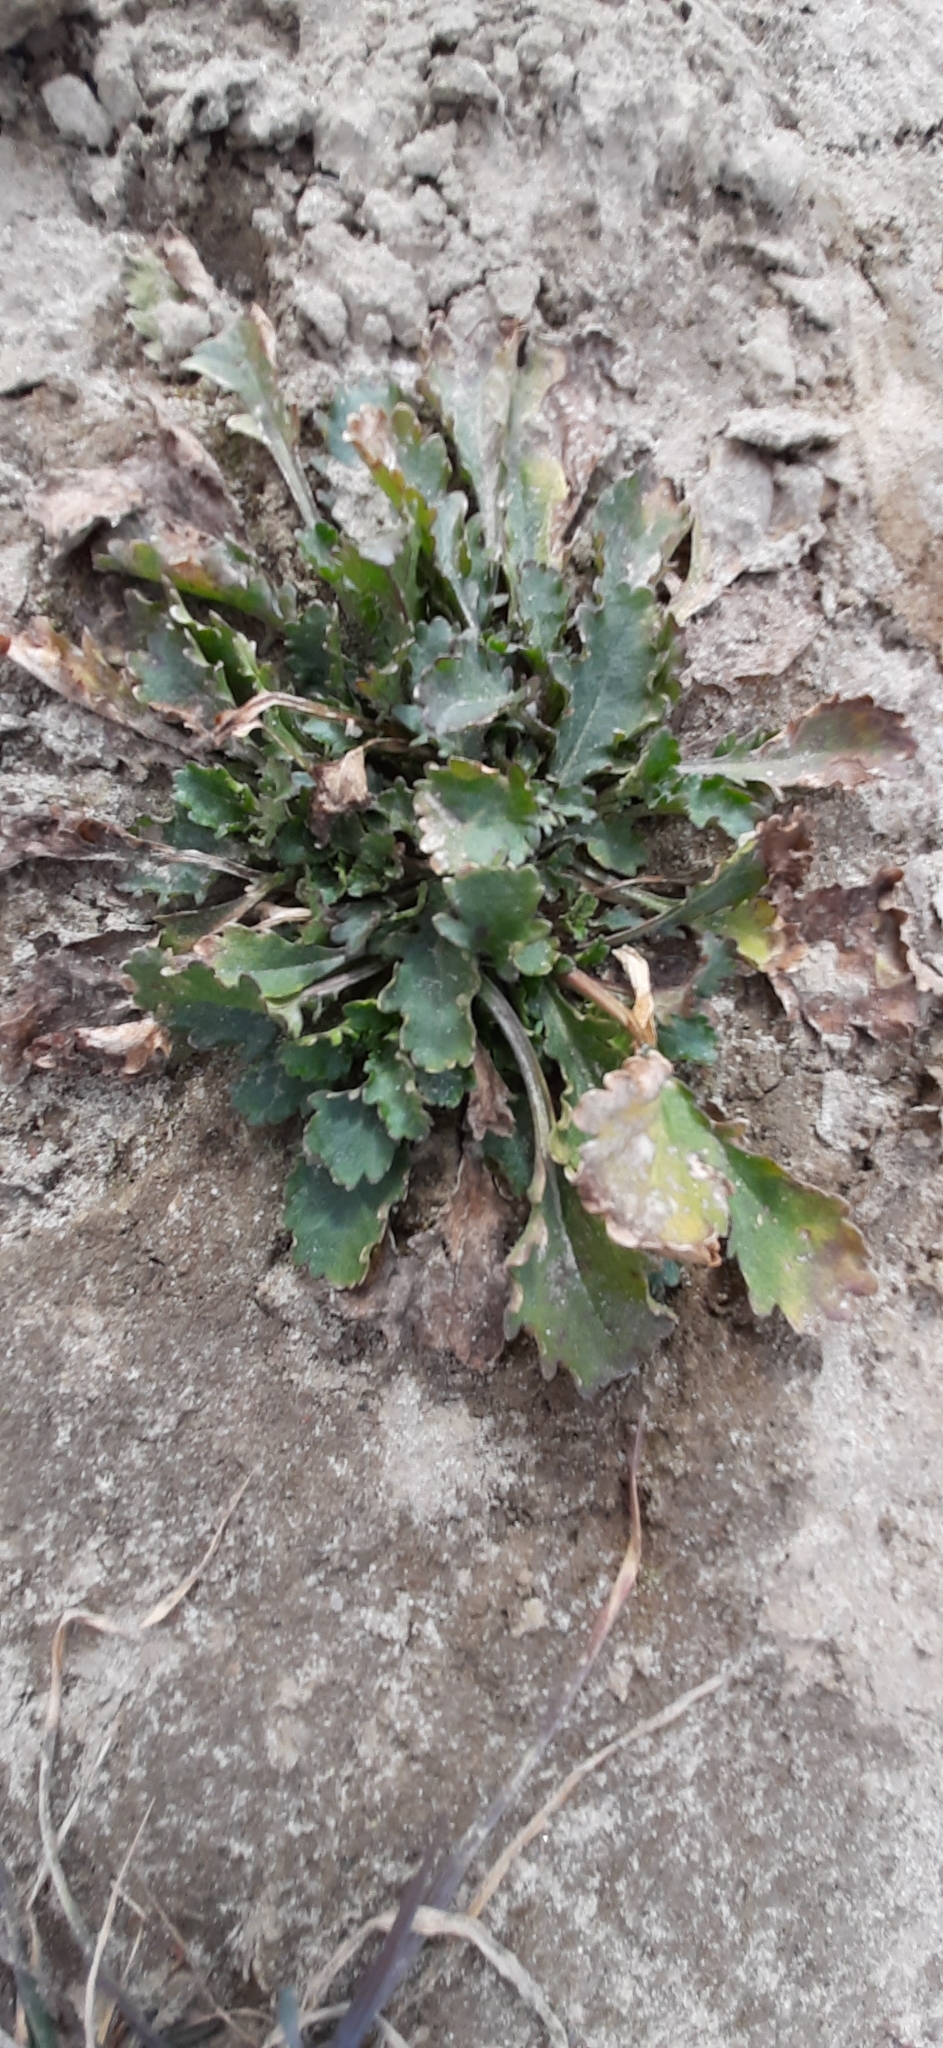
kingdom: Plantae
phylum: Tracheophyta
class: Magnoliopsida
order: Asterales
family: Asteraceae
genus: Leucanthemum
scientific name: Leucanthemum ircutianum
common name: Daisy
